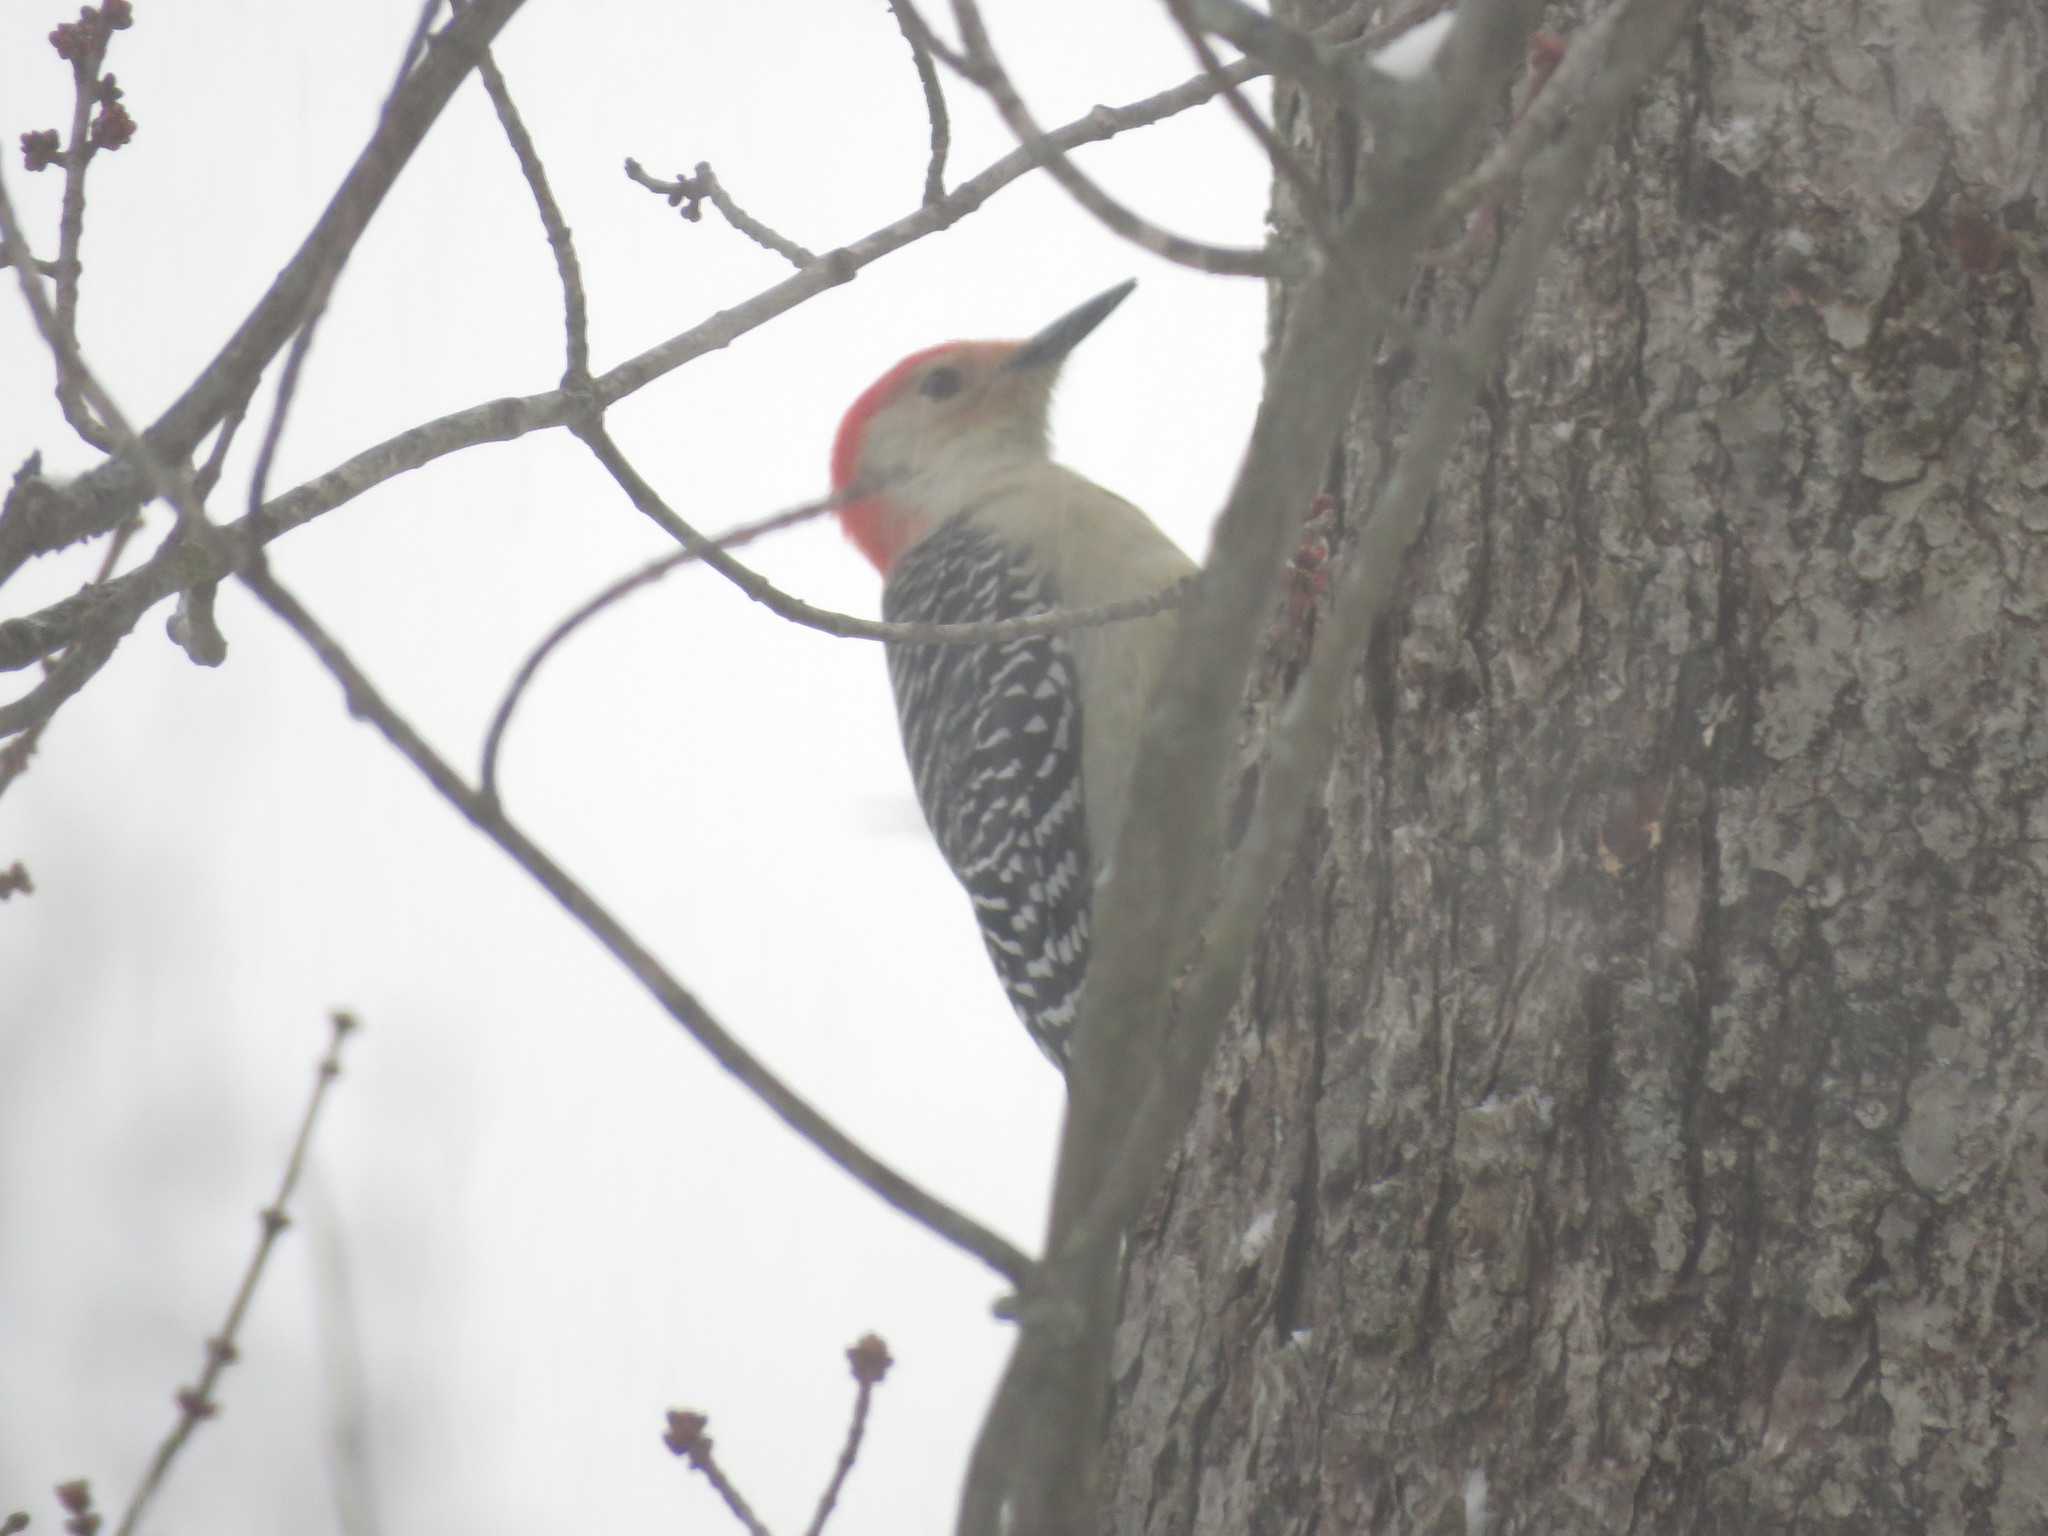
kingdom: Animalia
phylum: Chordata
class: Aves
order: Piciformes
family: Picidae
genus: Melanerpes
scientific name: Melanerpes carolinus
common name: Red-bellied woodpecker
